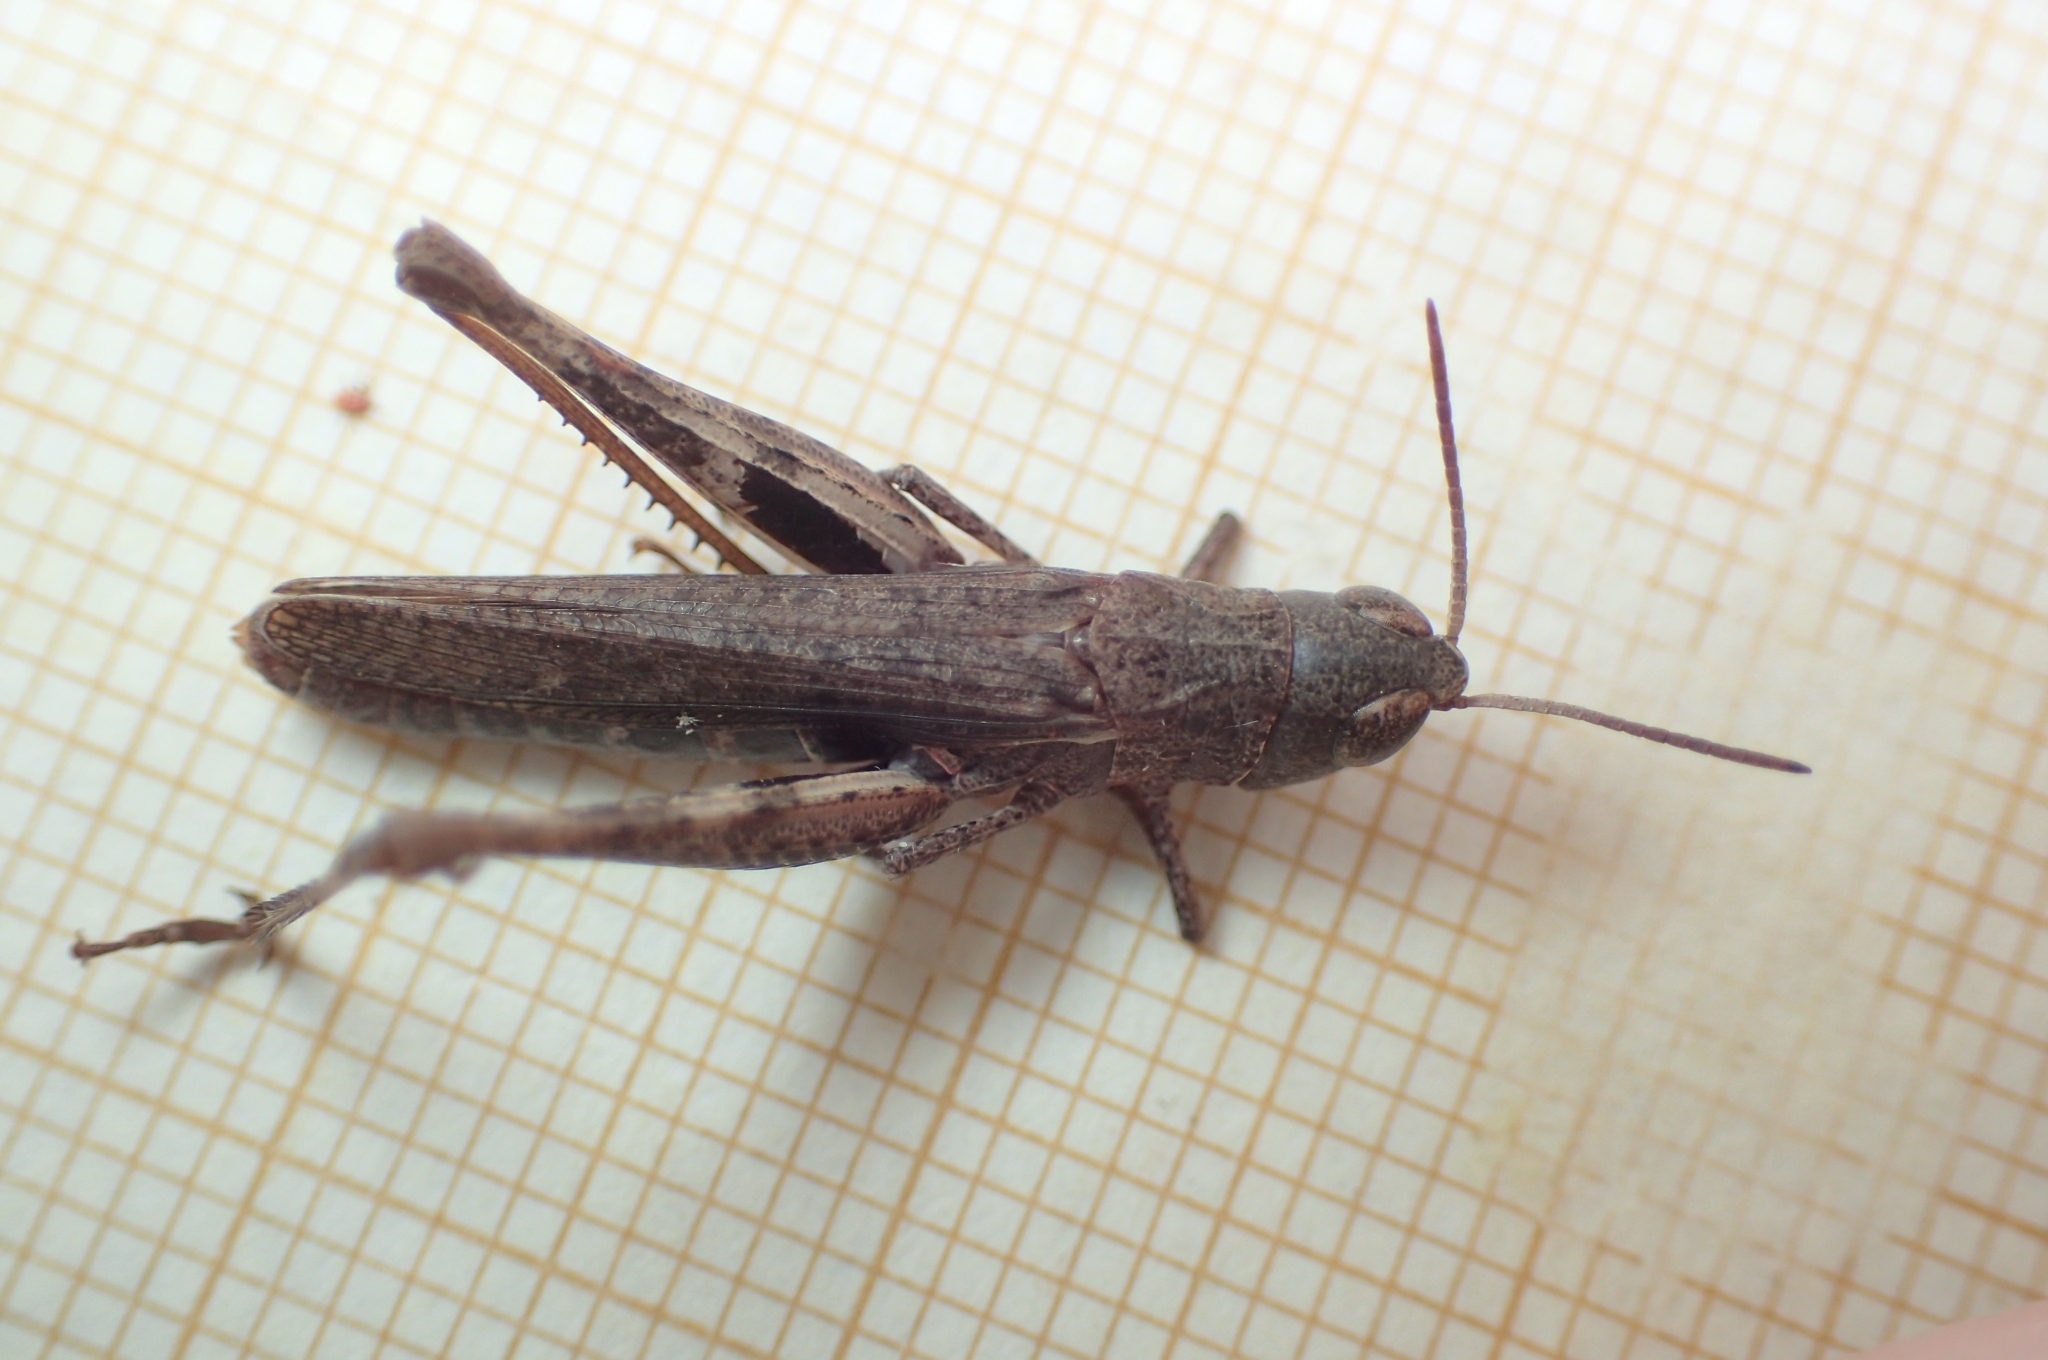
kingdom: Animalia
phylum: Arthropoda
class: Insecta
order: Orthoptera
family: Acrididae
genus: Chorthippus
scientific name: Chorthippus vagans
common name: Heath grasshopper
